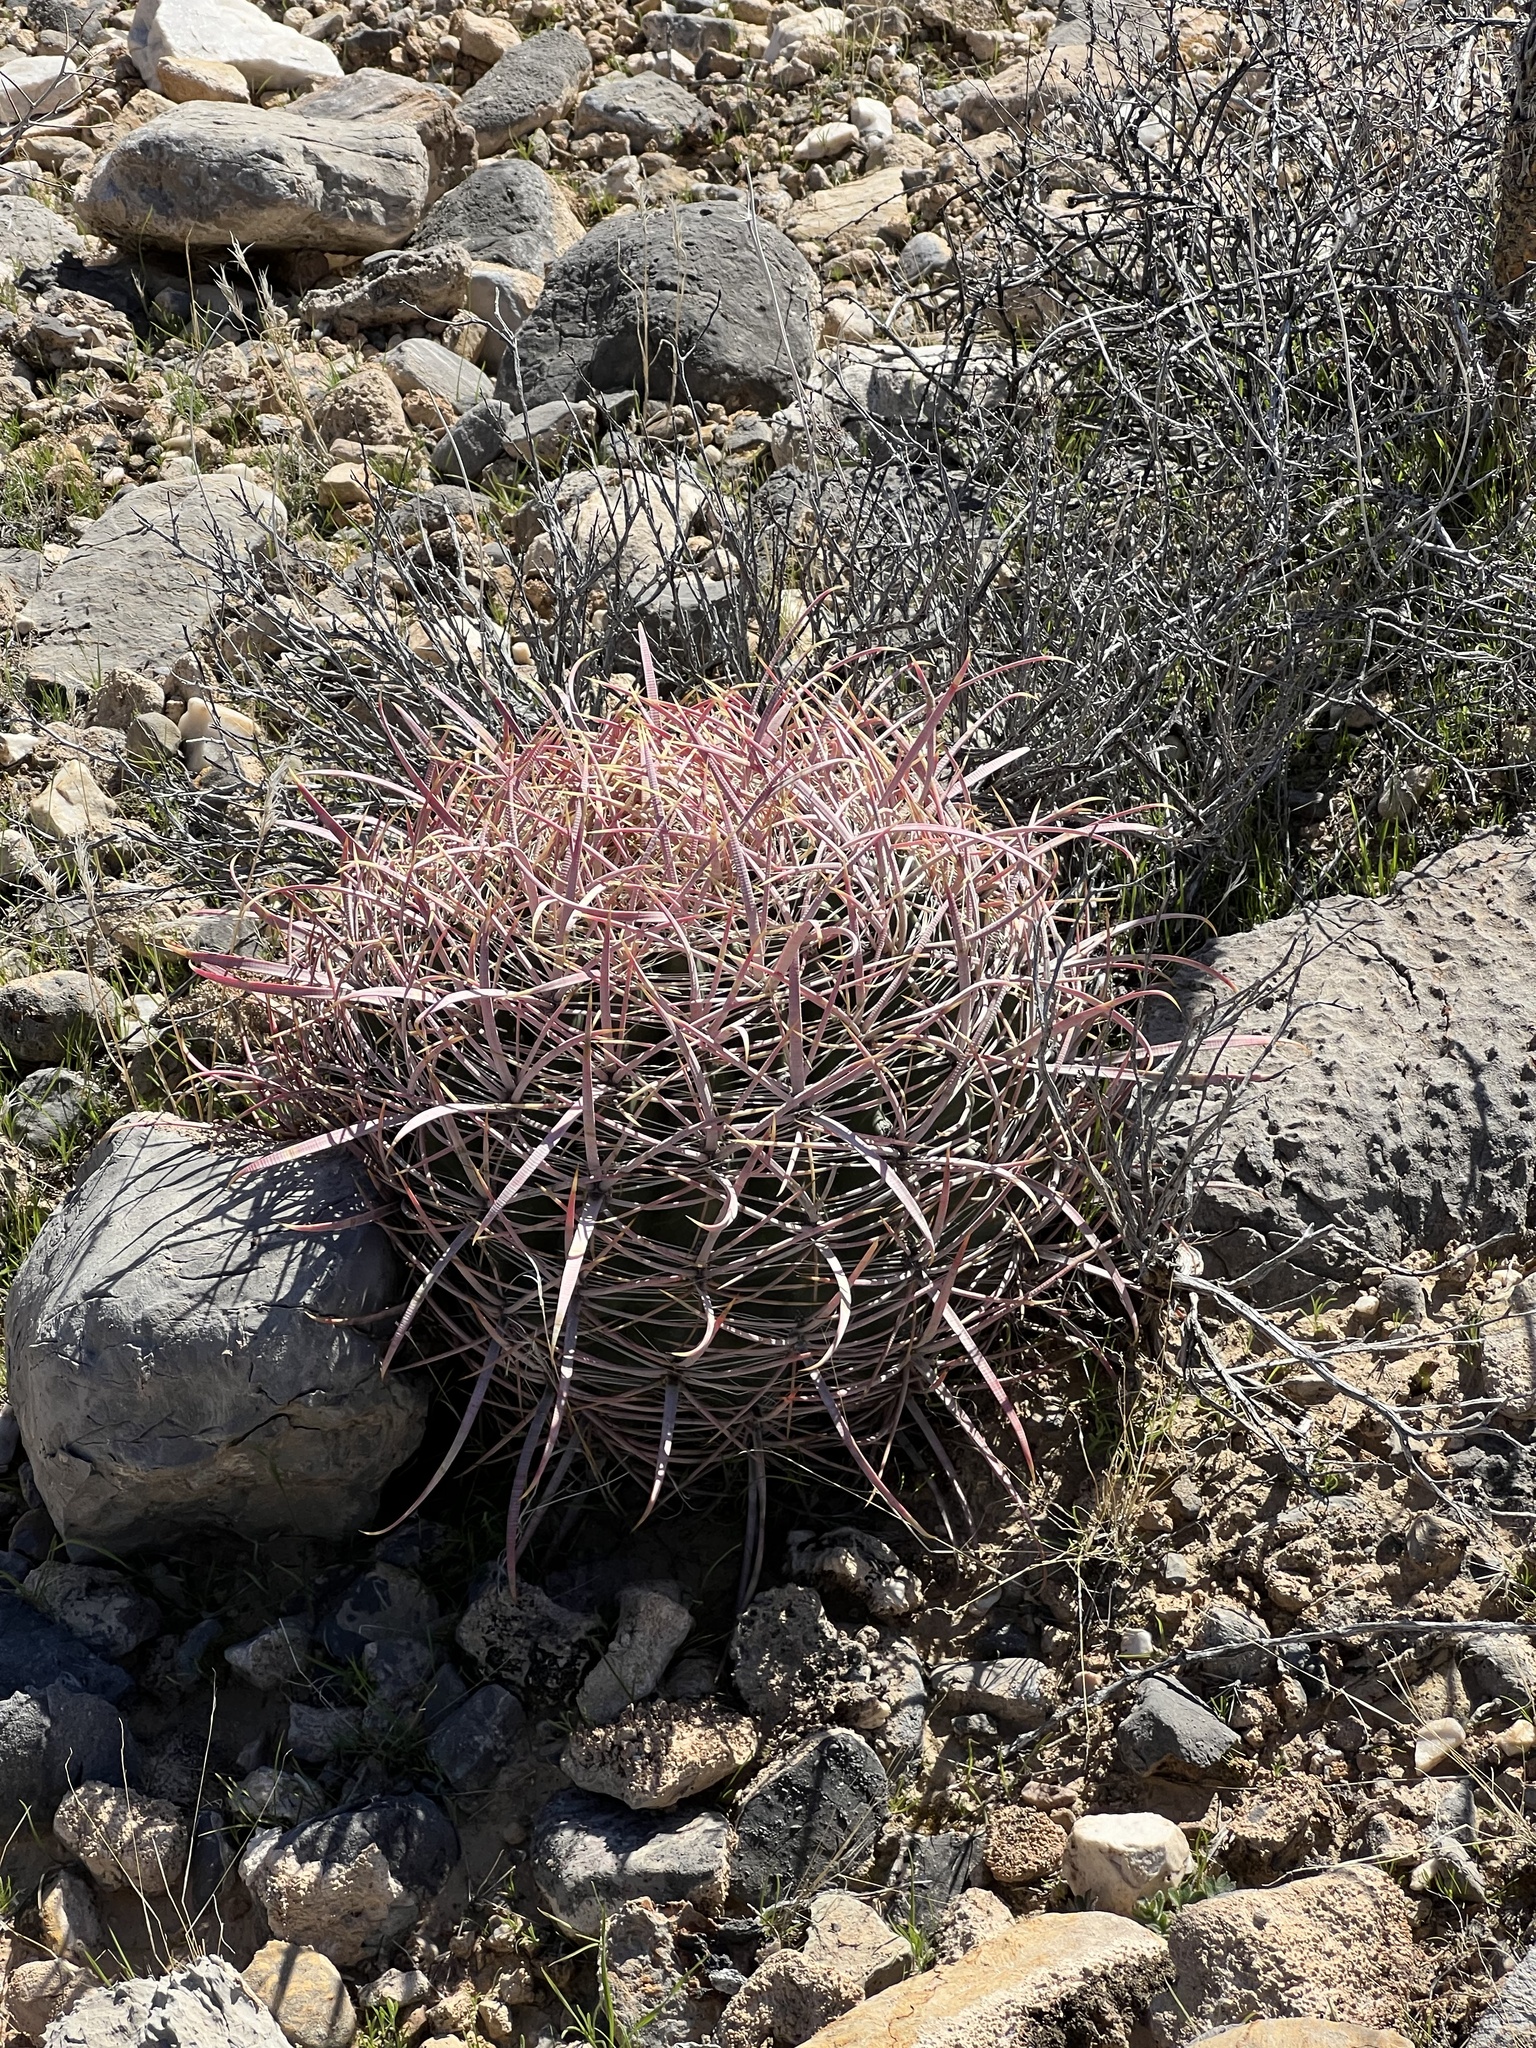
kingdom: Plantae
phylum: Tracheophyta
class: Magnoliopsida
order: Caryophyllales
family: Cactaceae
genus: Ferocactus
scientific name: Ferocactus cylindraceus
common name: California barrel cactus
